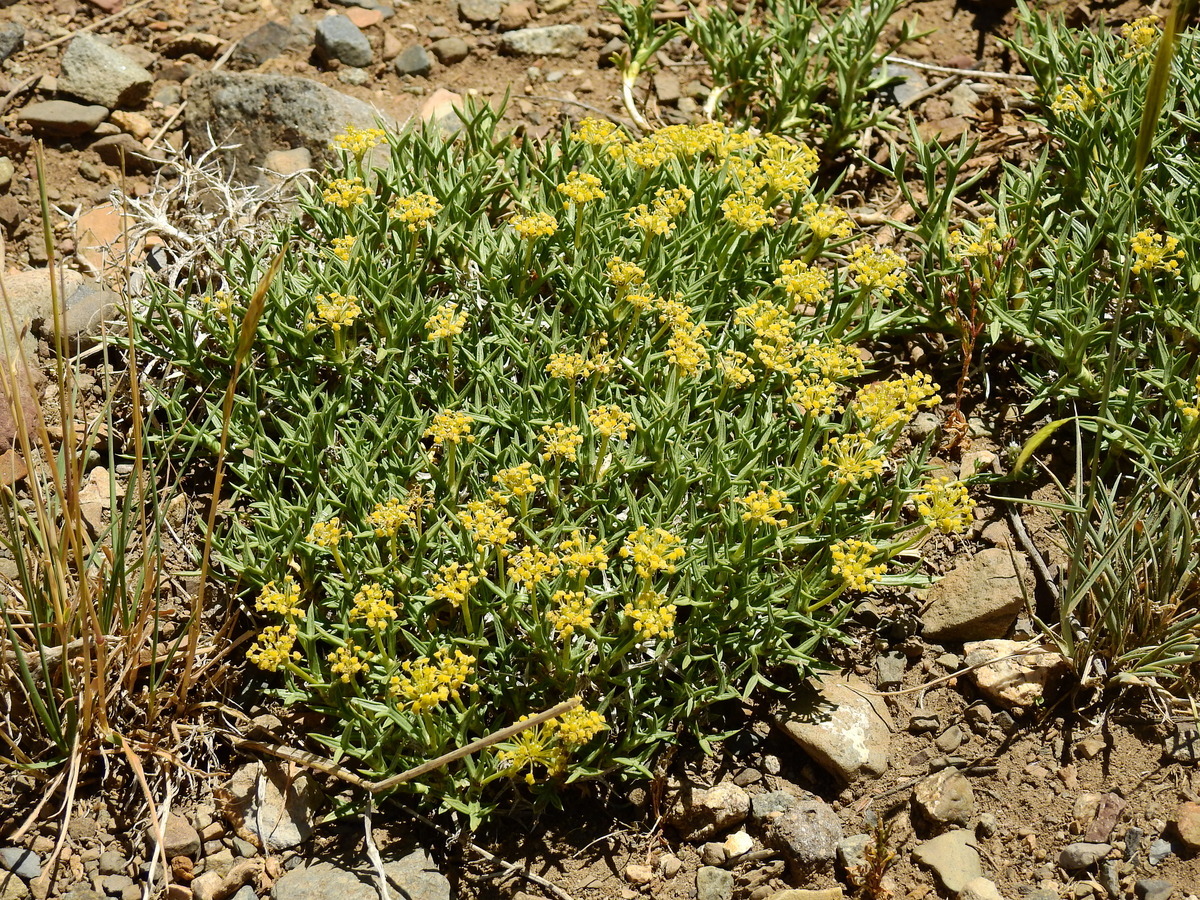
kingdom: Plantae
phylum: Tracheophyta
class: Magnoliopsida
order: Apiales
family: Apiaceae
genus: Azorella
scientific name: Azorella prolifera
